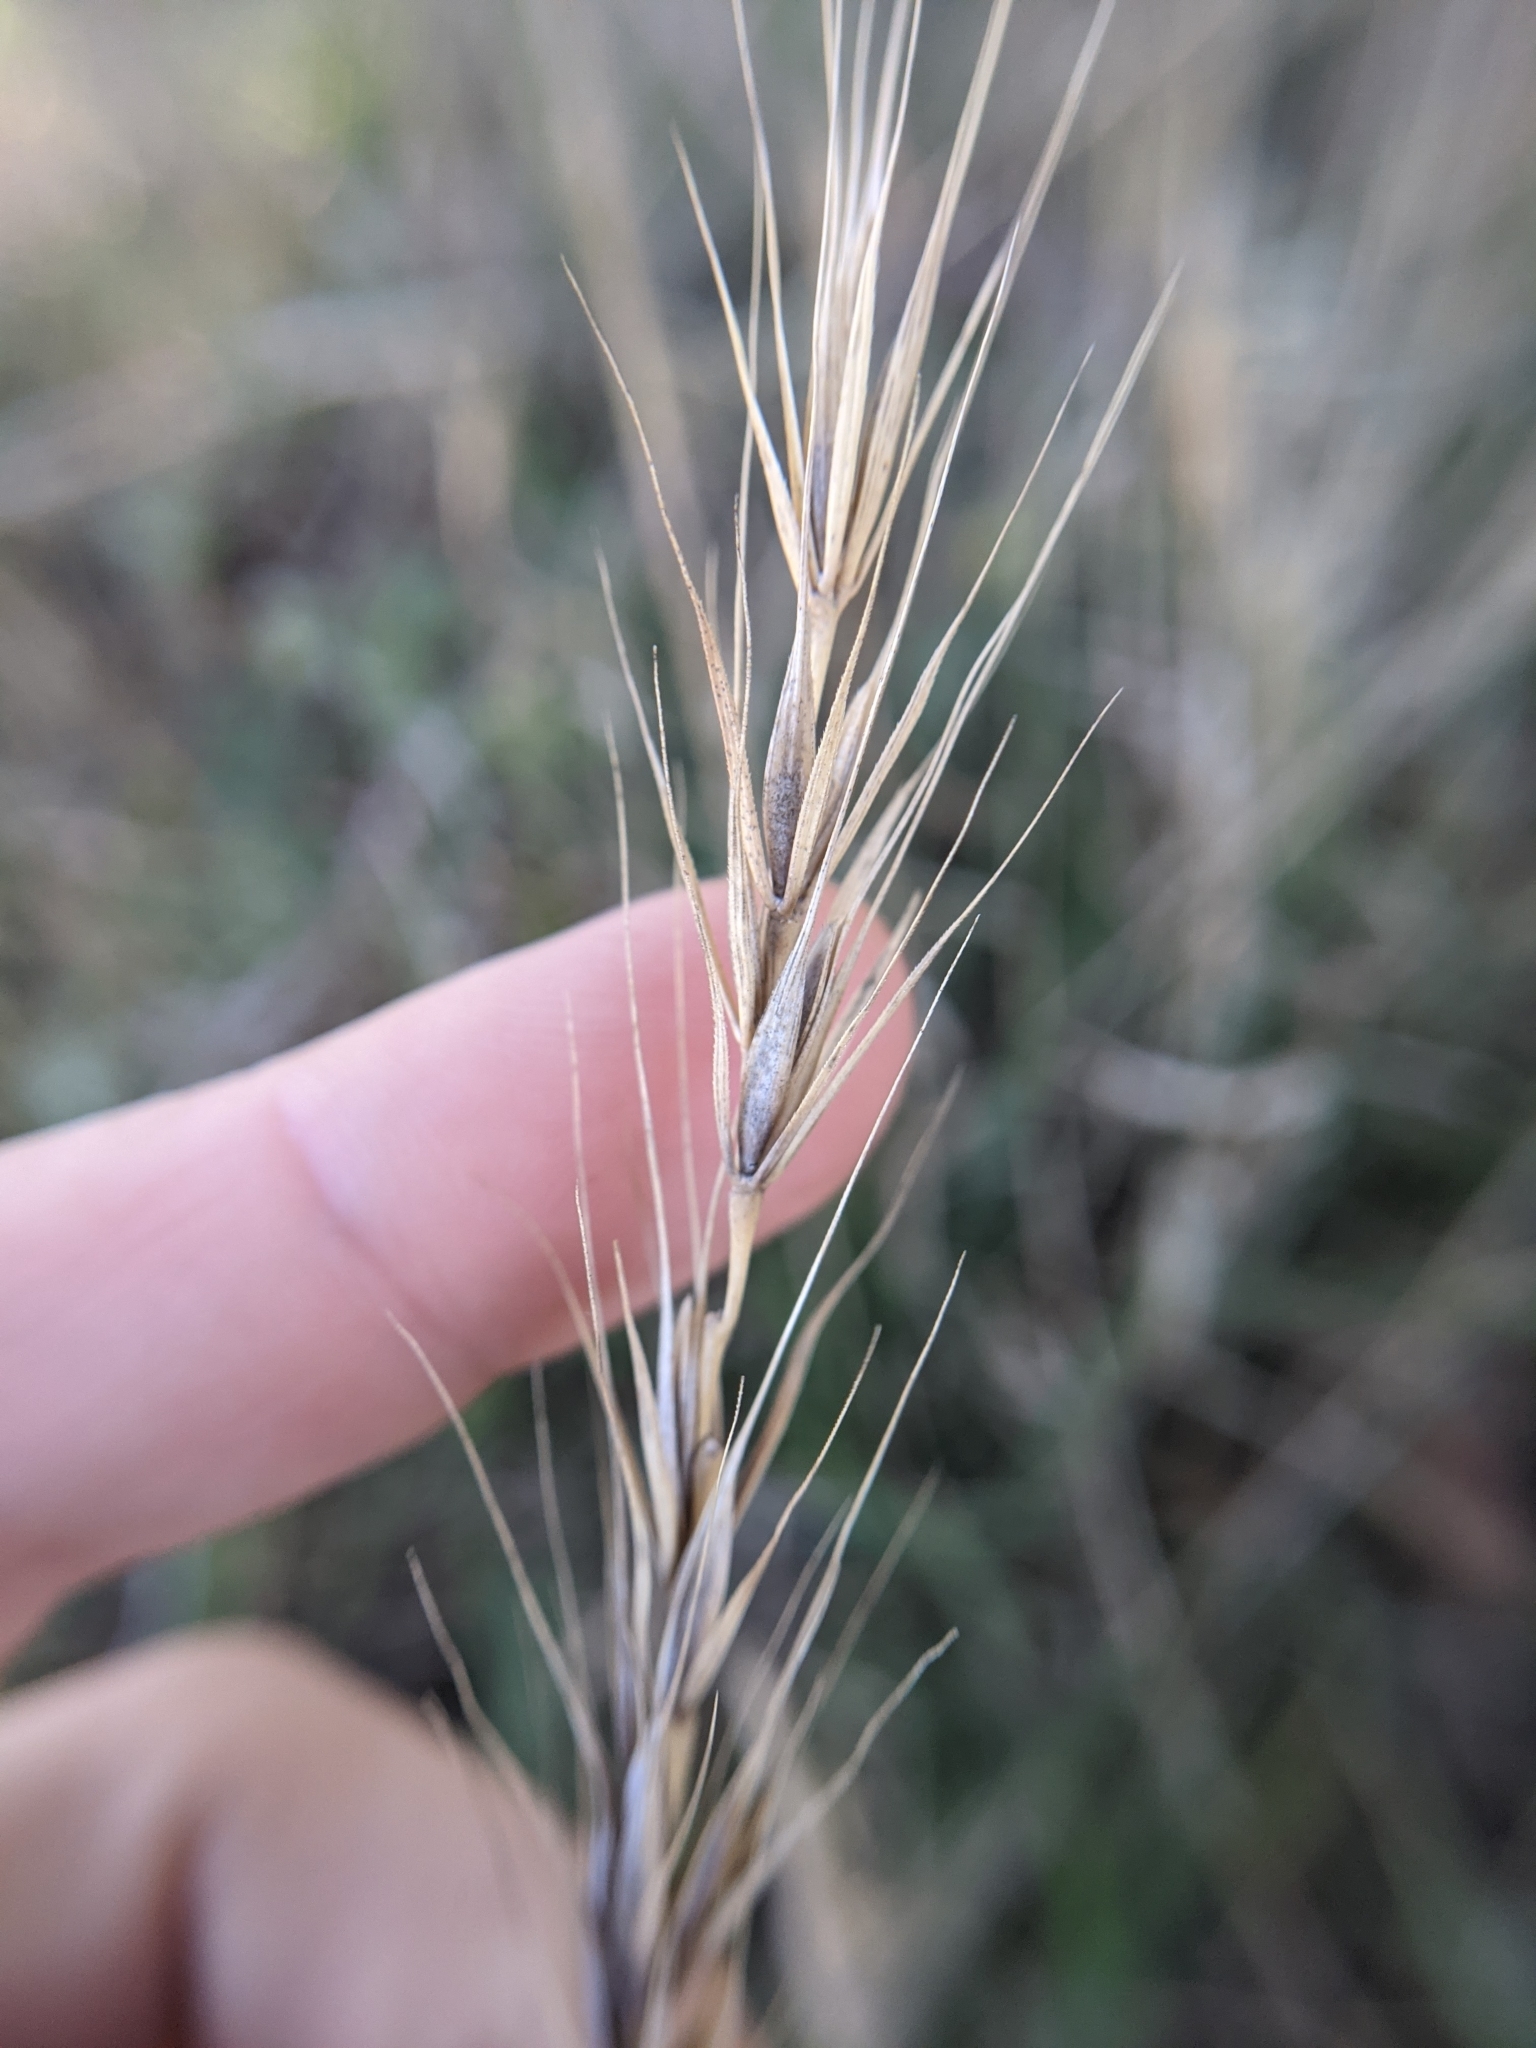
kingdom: Plantae
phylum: Tracheophyta
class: Liliopsida
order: Poales
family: Poaceae
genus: Elymus
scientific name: Elymus macgregorii
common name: Early wild rye
